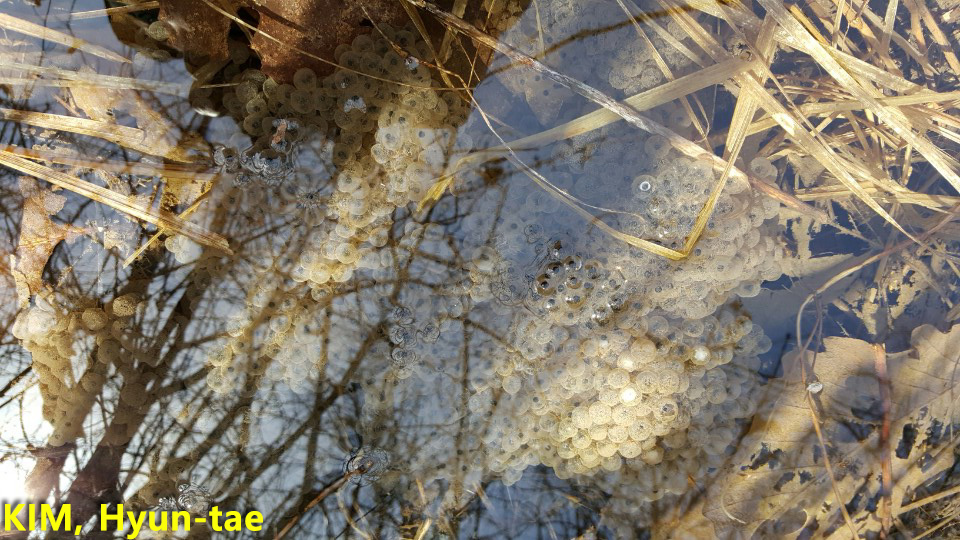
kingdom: Animalia
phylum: Chordata
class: Amphibia
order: Anura
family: Ranidae
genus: Rana
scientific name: Rana huanrenensis
